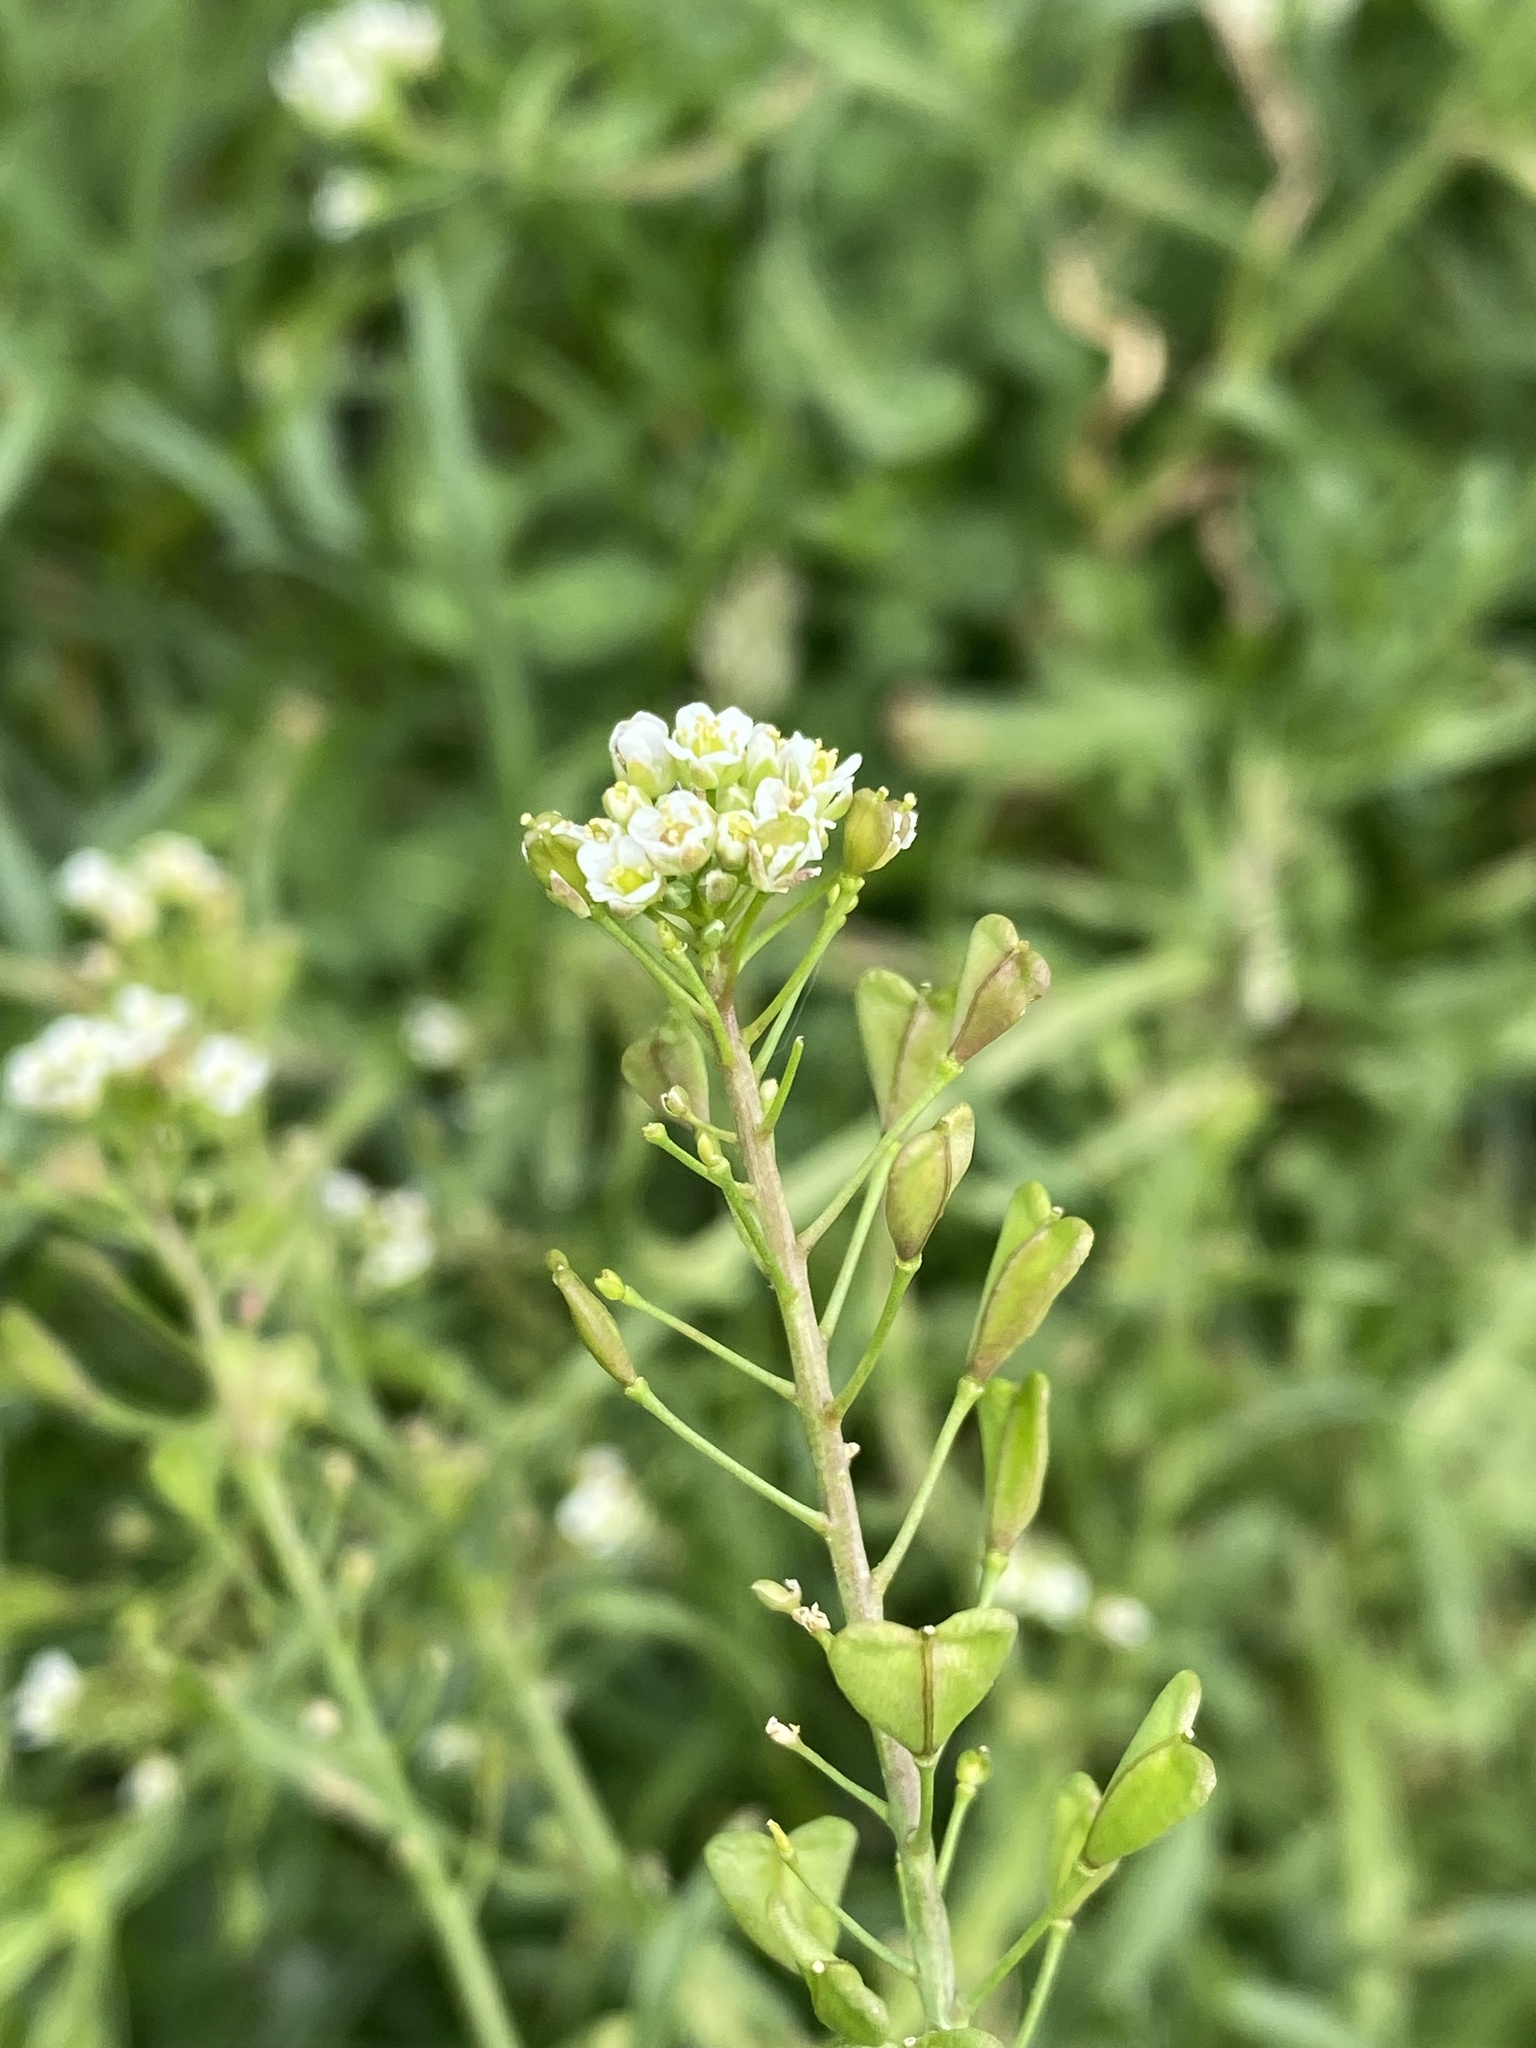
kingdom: Plantae
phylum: Tracheophyta
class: Magnoliopsida
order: Brassicales
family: Brassicaceae
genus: Capsella
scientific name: Capsella bursa-pastoris
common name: Shepherd's purse
